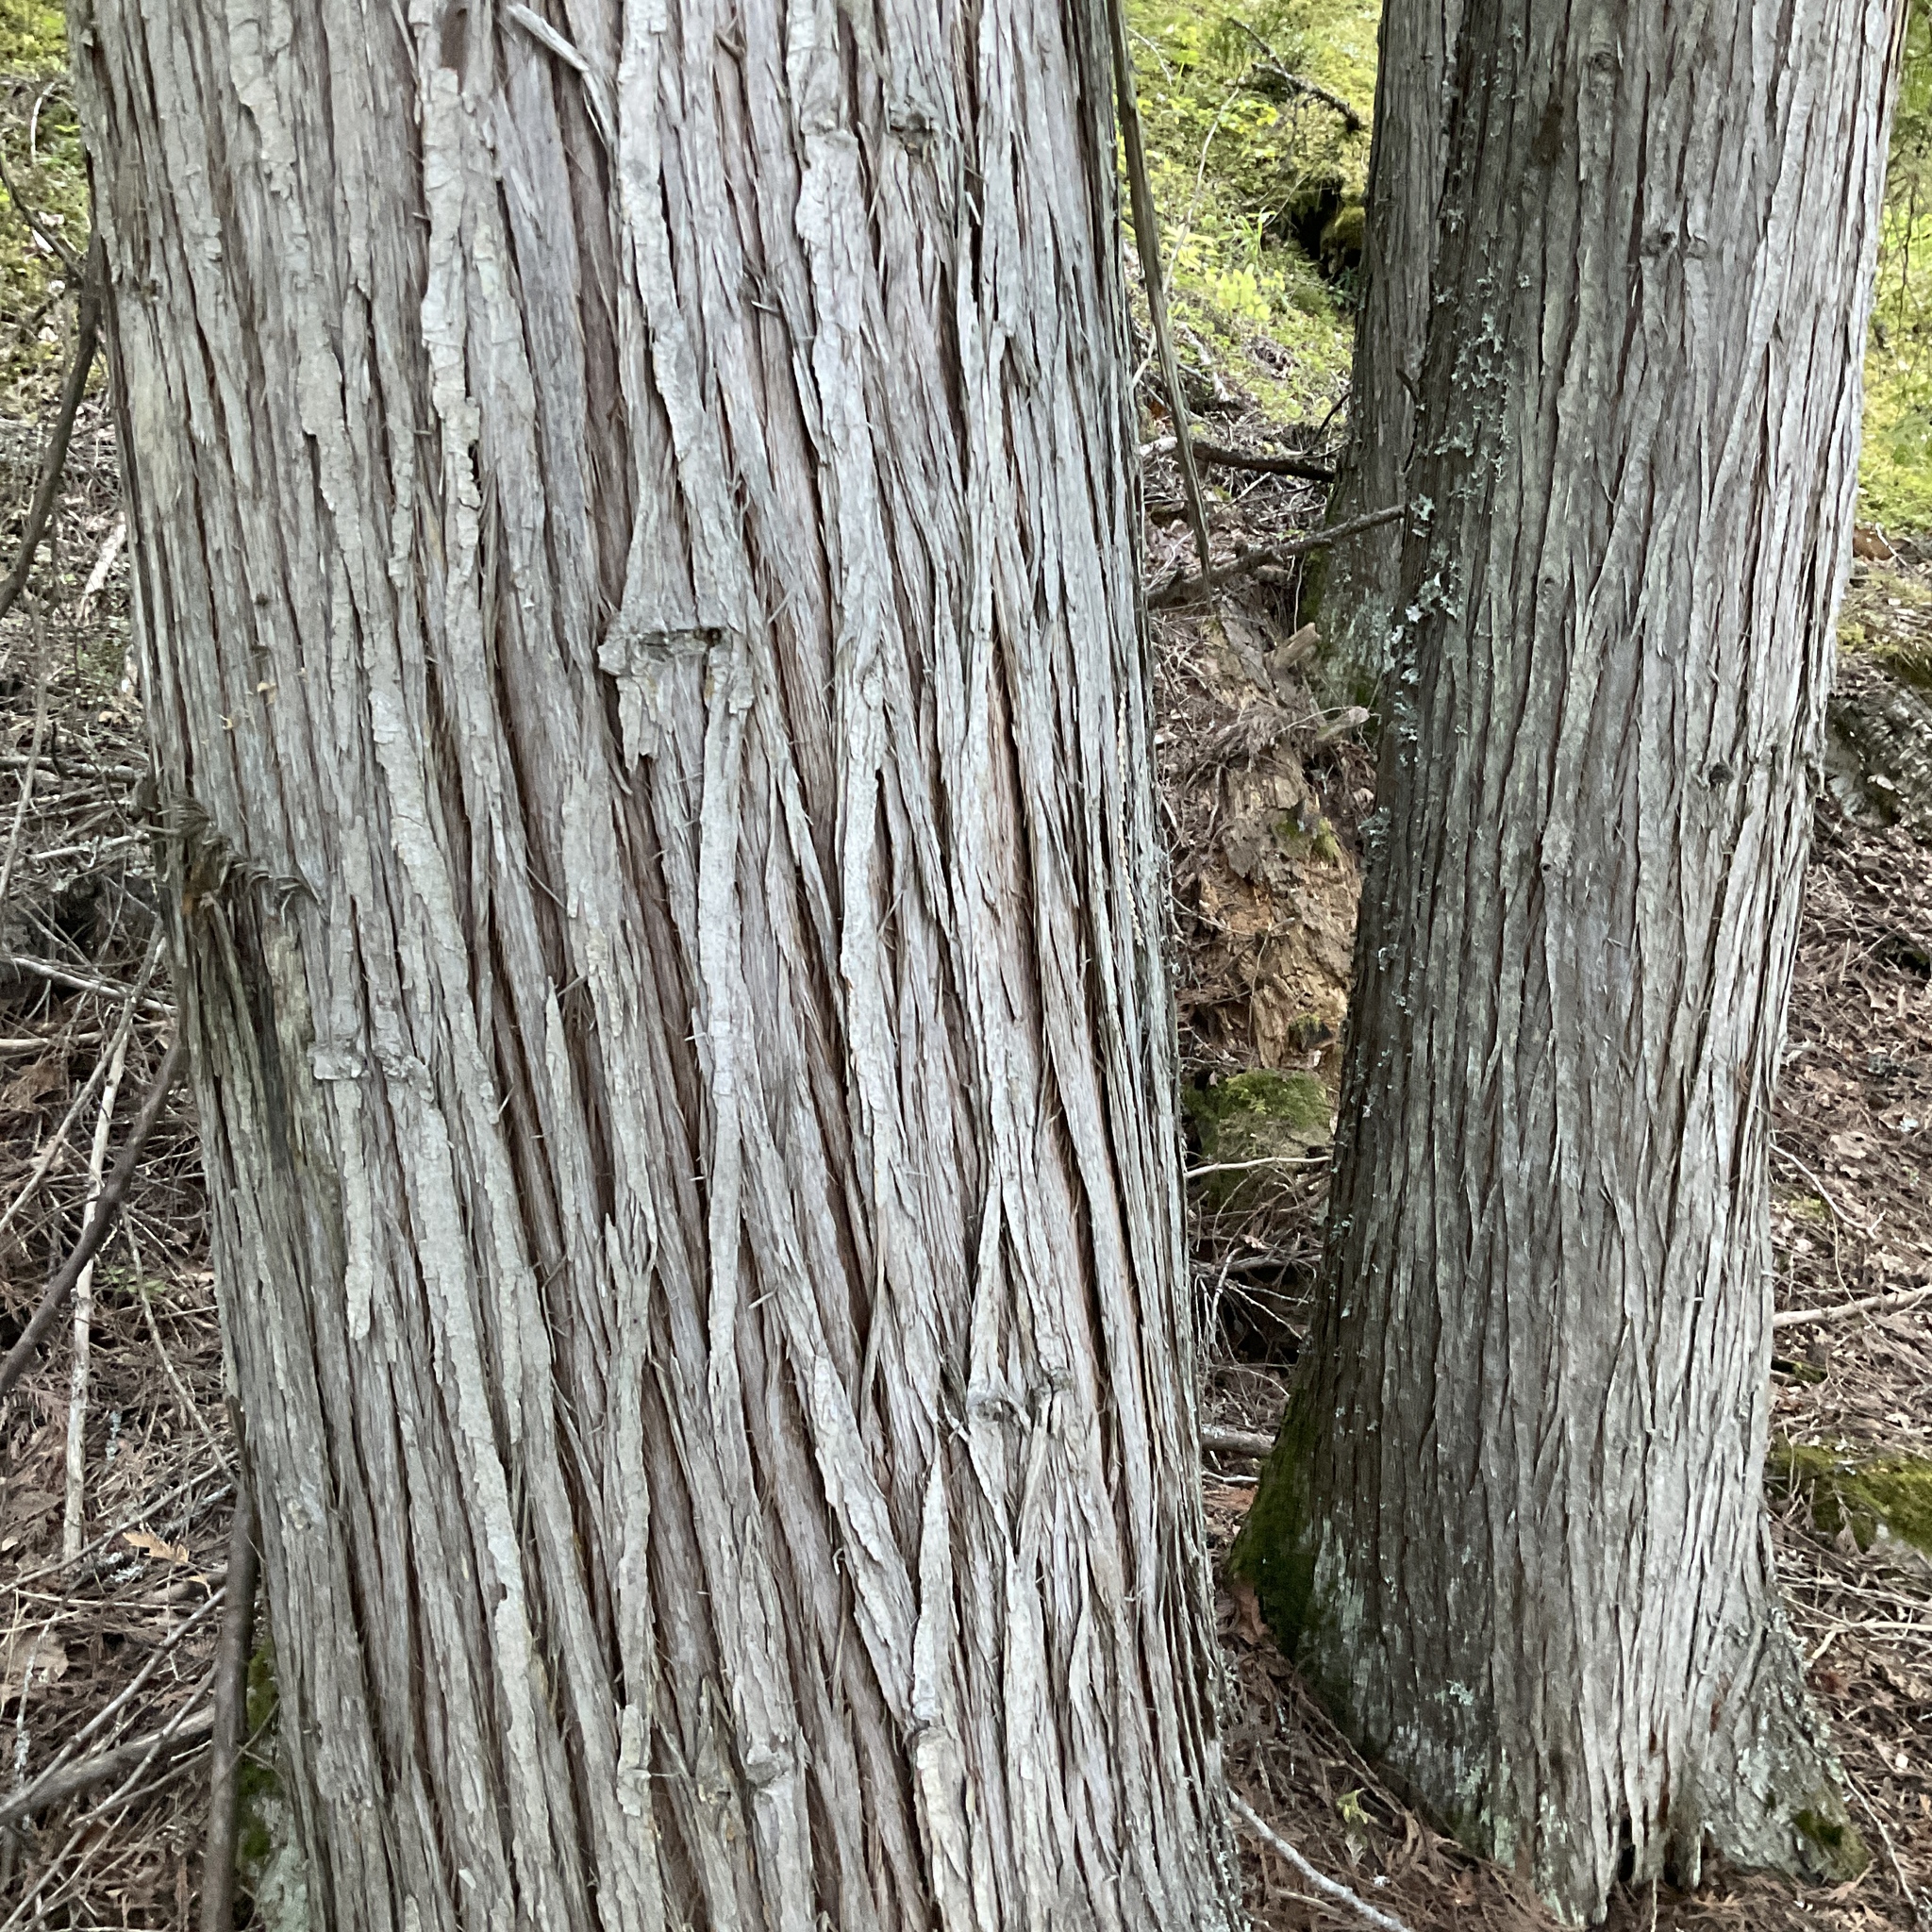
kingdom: Plantae
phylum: Tracheophyta
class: Pinopsida
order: Pinales
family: Cupressaceae
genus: Thuja
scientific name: Thuja plicata
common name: Western red-cedar
